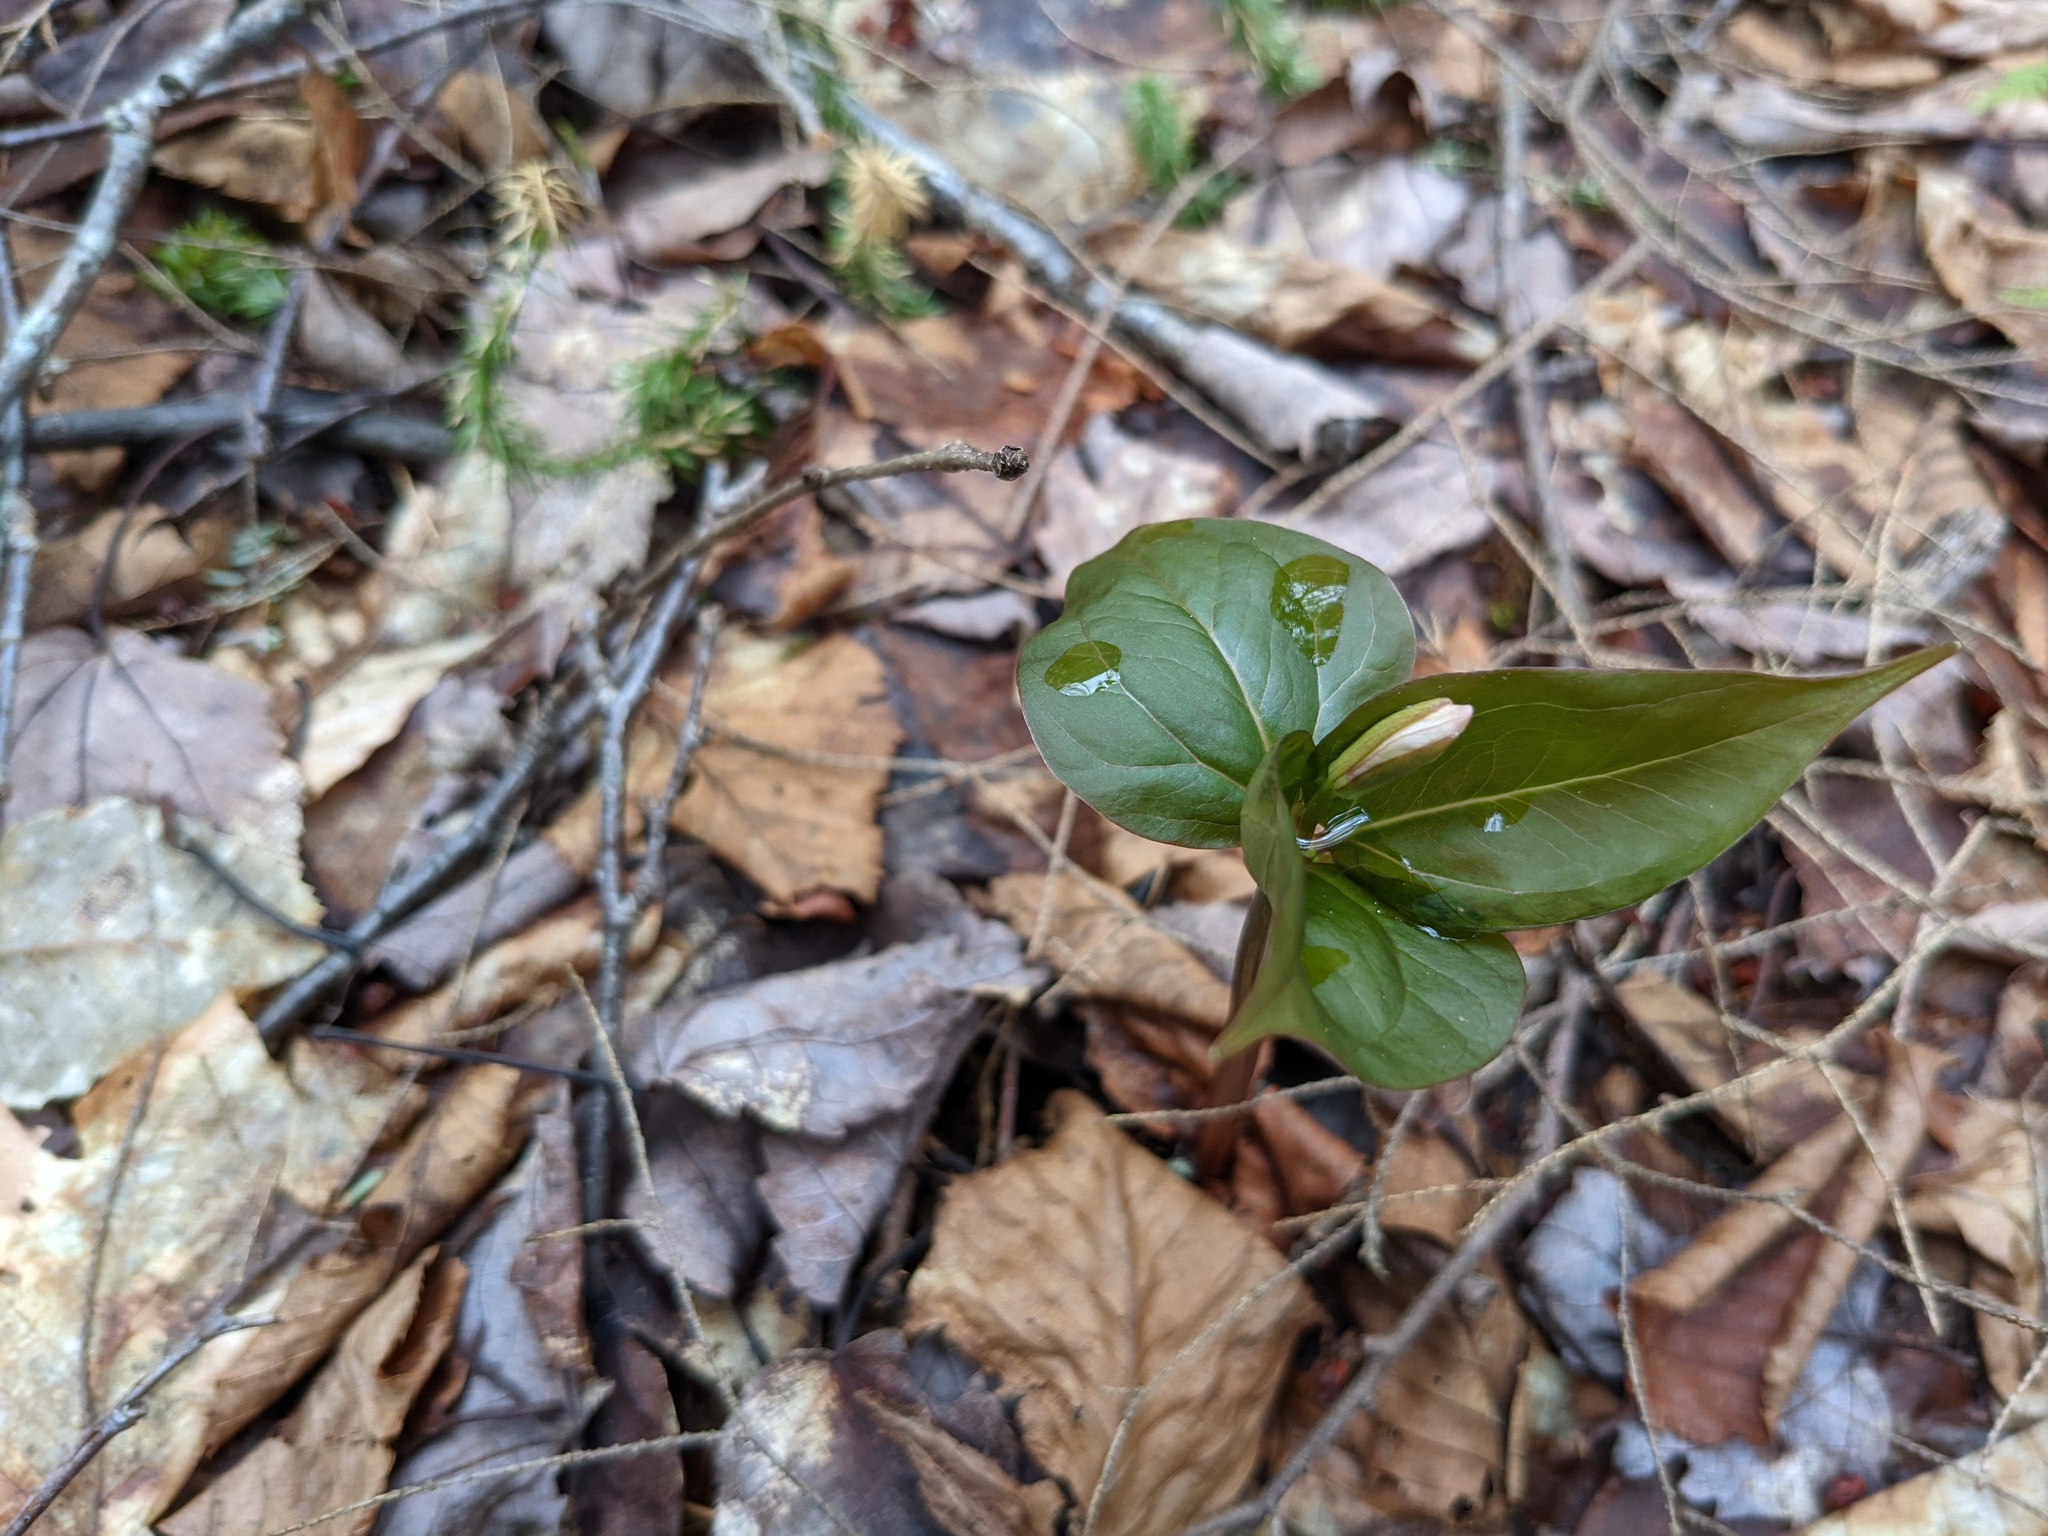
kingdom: Plantae
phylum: Tracheophyta
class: Liliopsida
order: Liliales
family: Melanthiaceae
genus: Trillium
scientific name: Trillium undulatum
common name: Paint trillium
